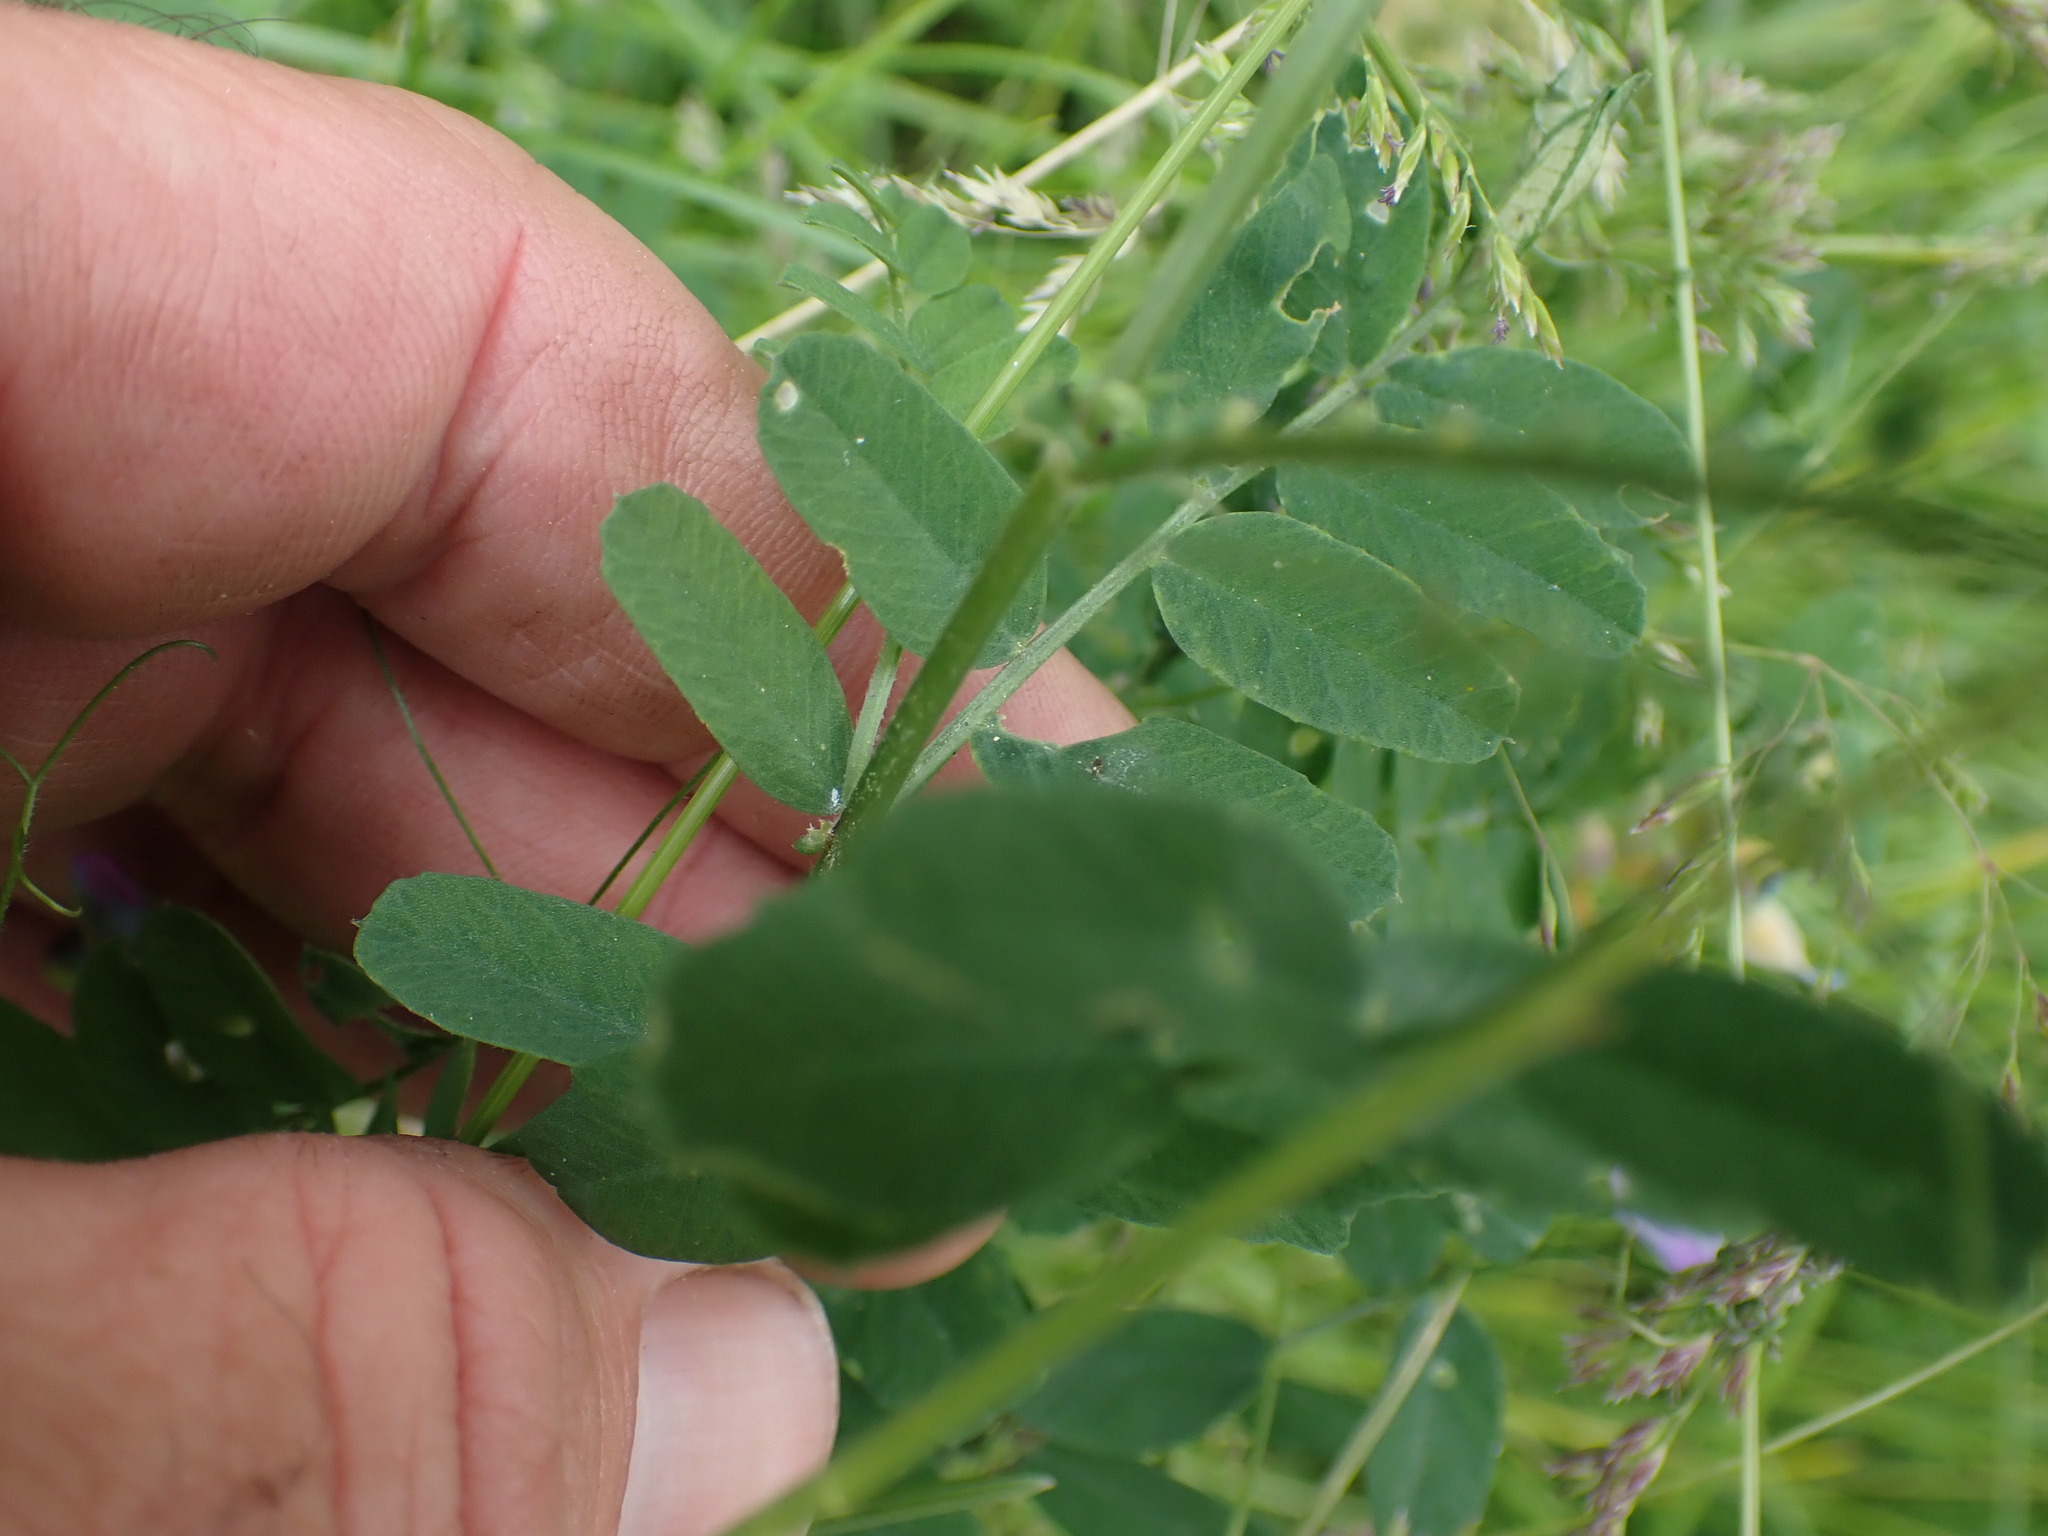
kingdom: Plantae
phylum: Tracheophyta
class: Magnoliopsida
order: Fabales
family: Fabaceae
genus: Vicia
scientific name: Vicia americana
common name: American vetch
